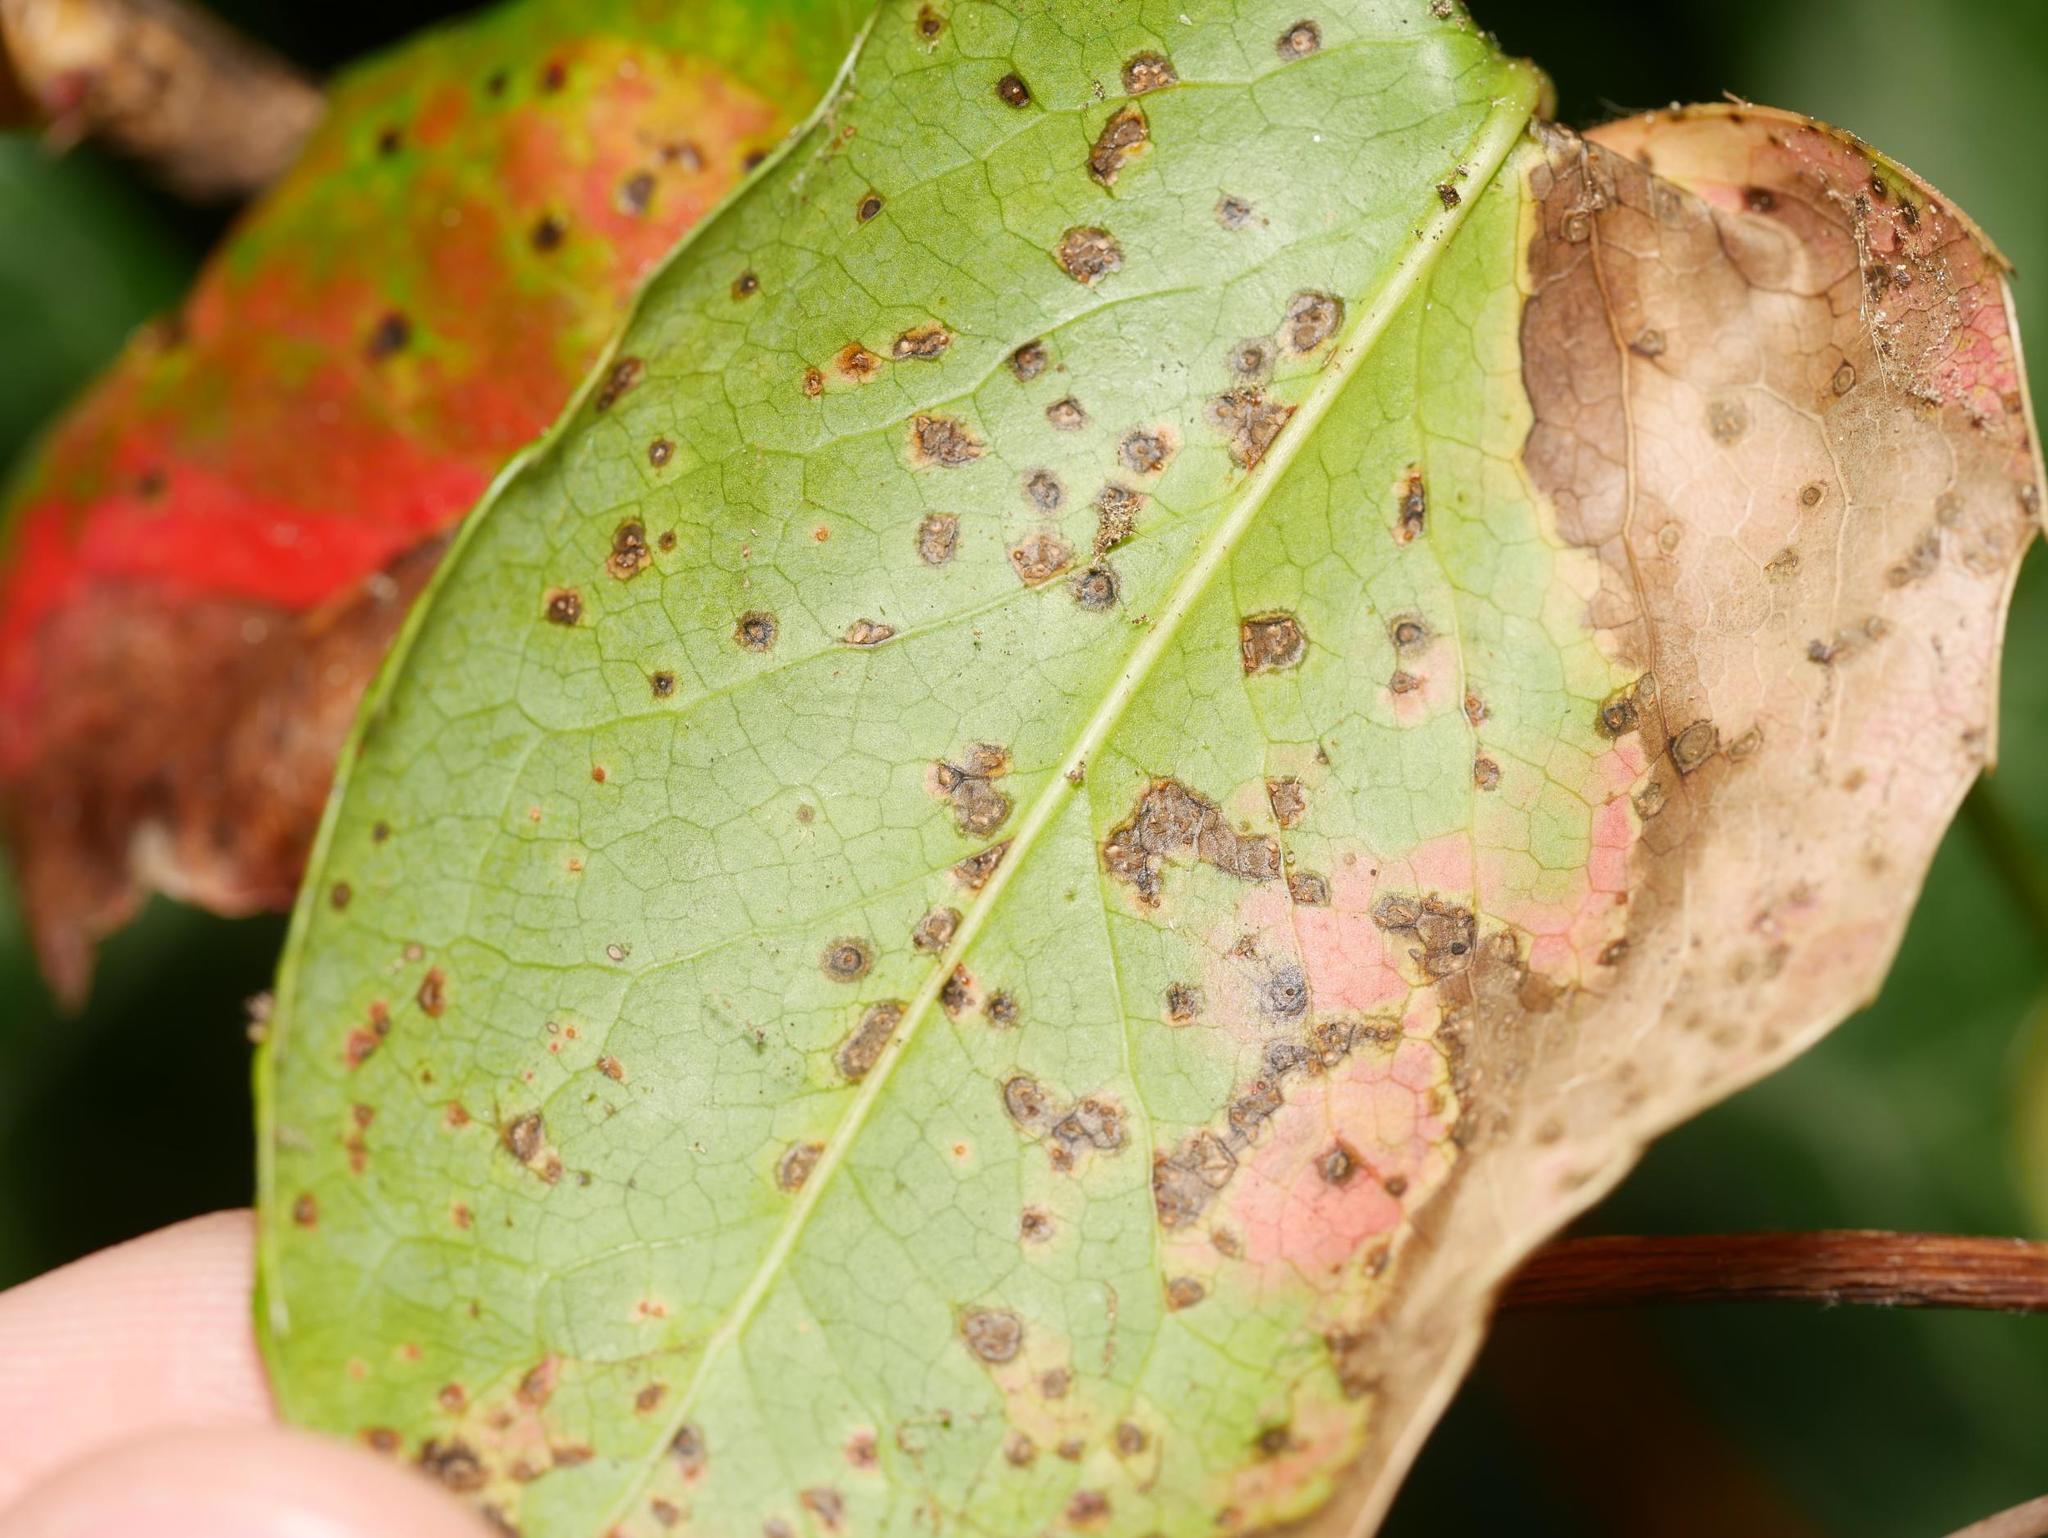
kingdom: Fungi
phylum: Basidiomycota
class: Pucciniomycetes
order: Pucciniales
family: Pucciniaceae
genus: Cumminsiella
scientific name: Cumminsiella mirabilissima
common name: Mahonia rust
